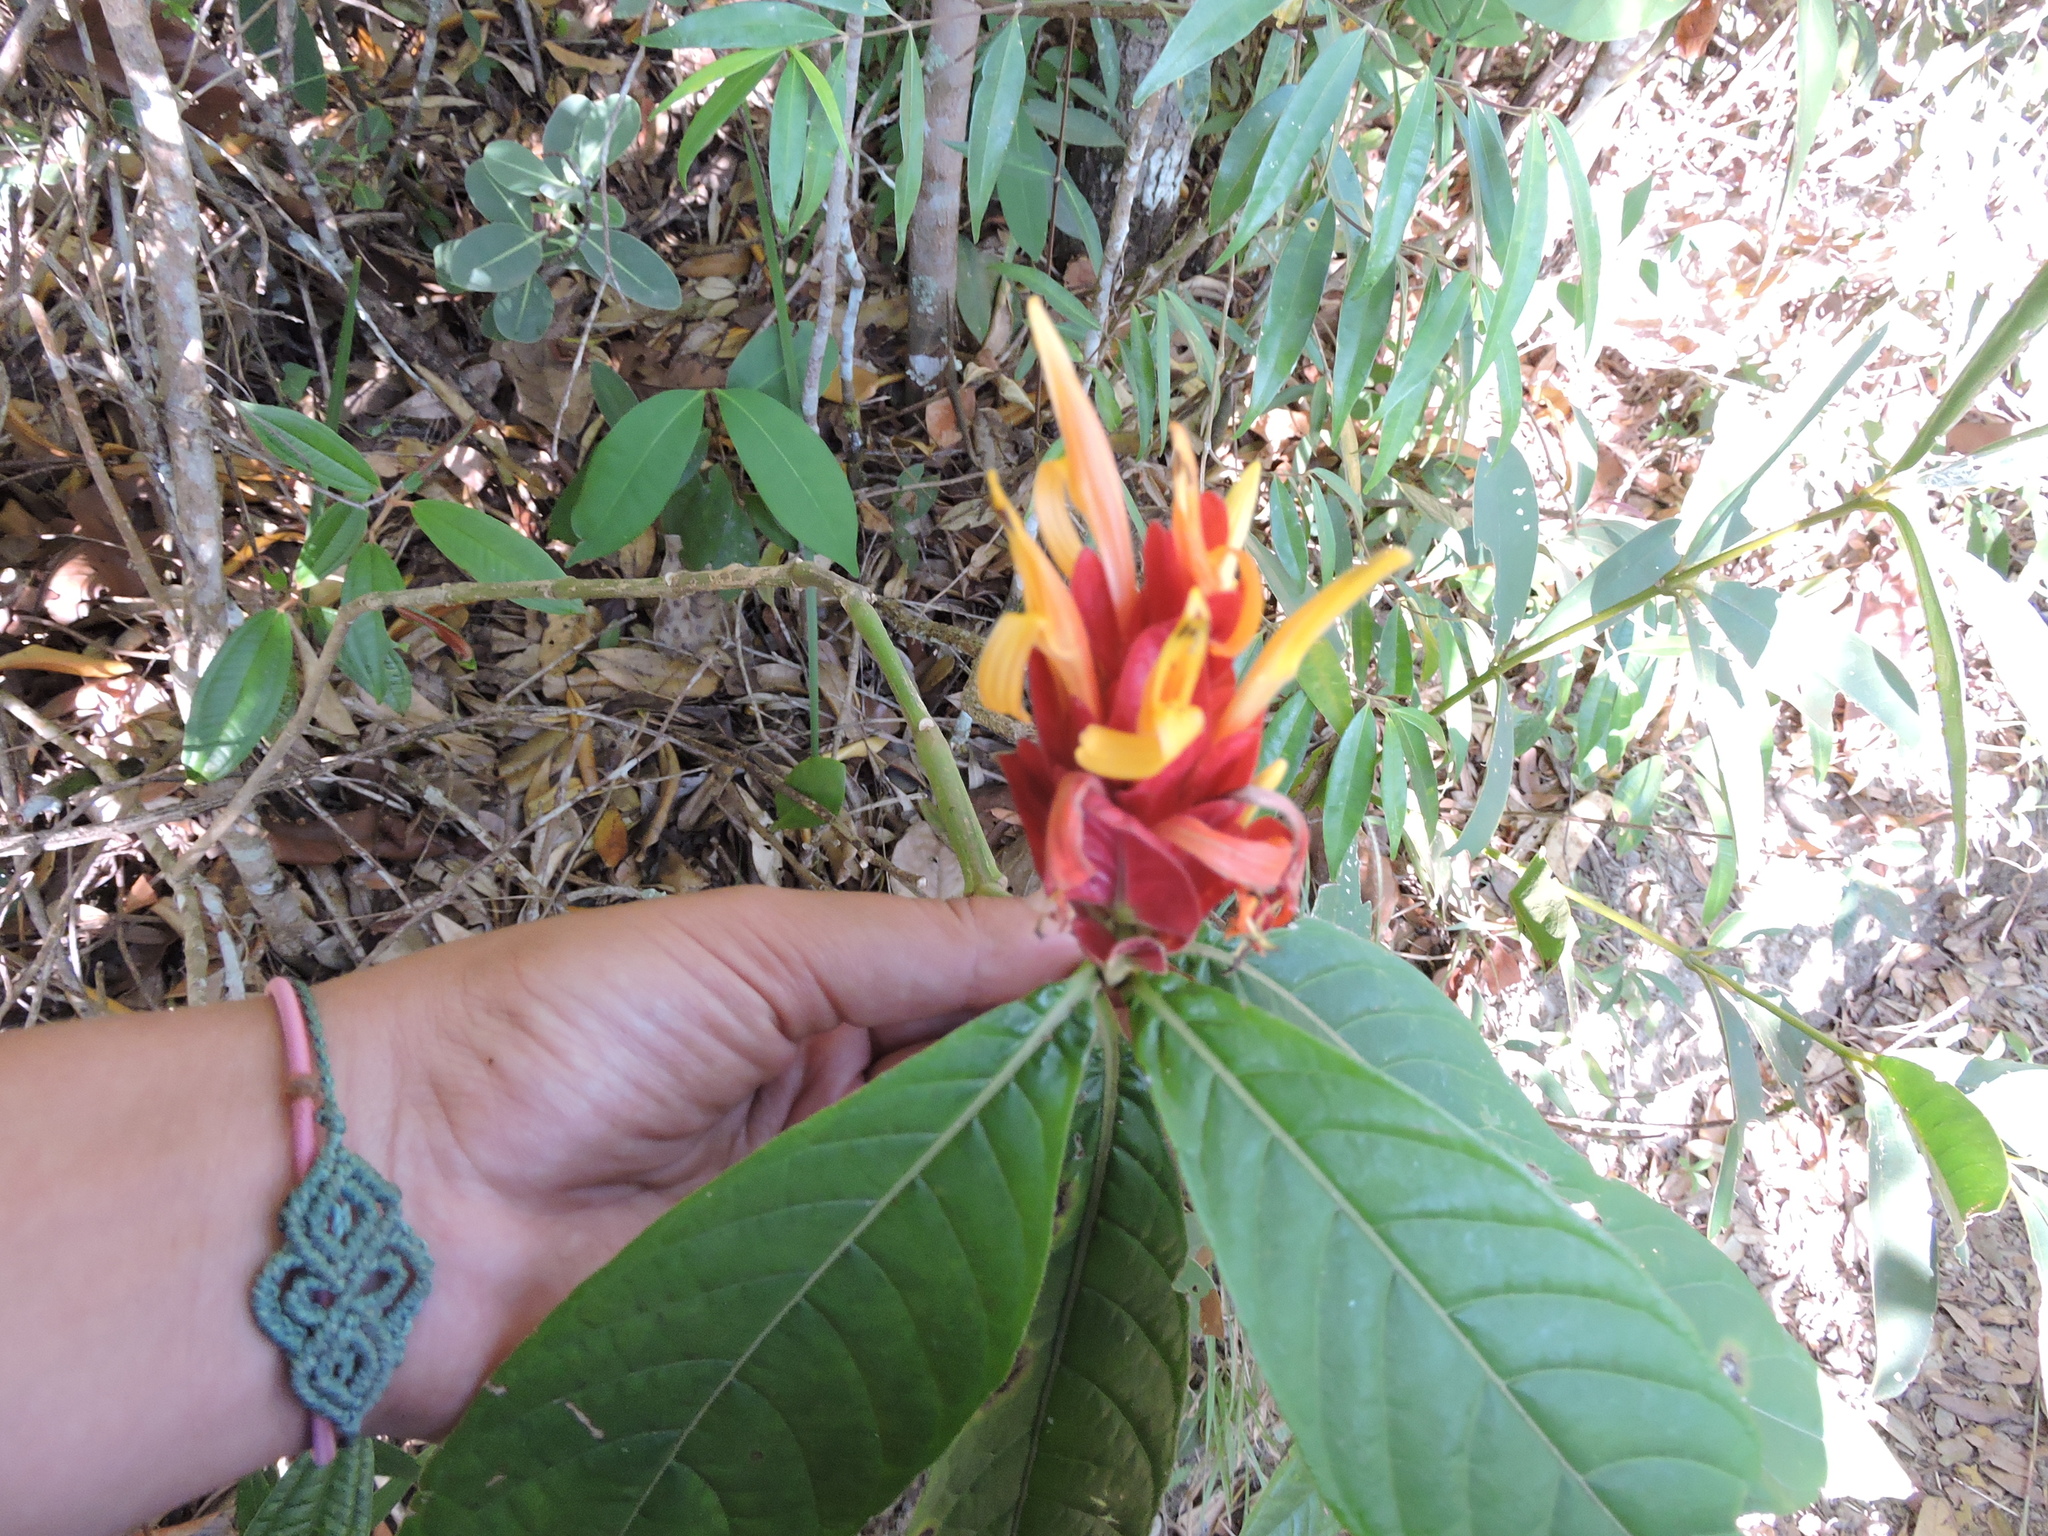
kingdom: Plantae
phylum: Tracheophyta
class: Magnoliopsida
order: Lamiales
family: Acanthaceae
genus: Justicia
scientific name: Justicia riparia
